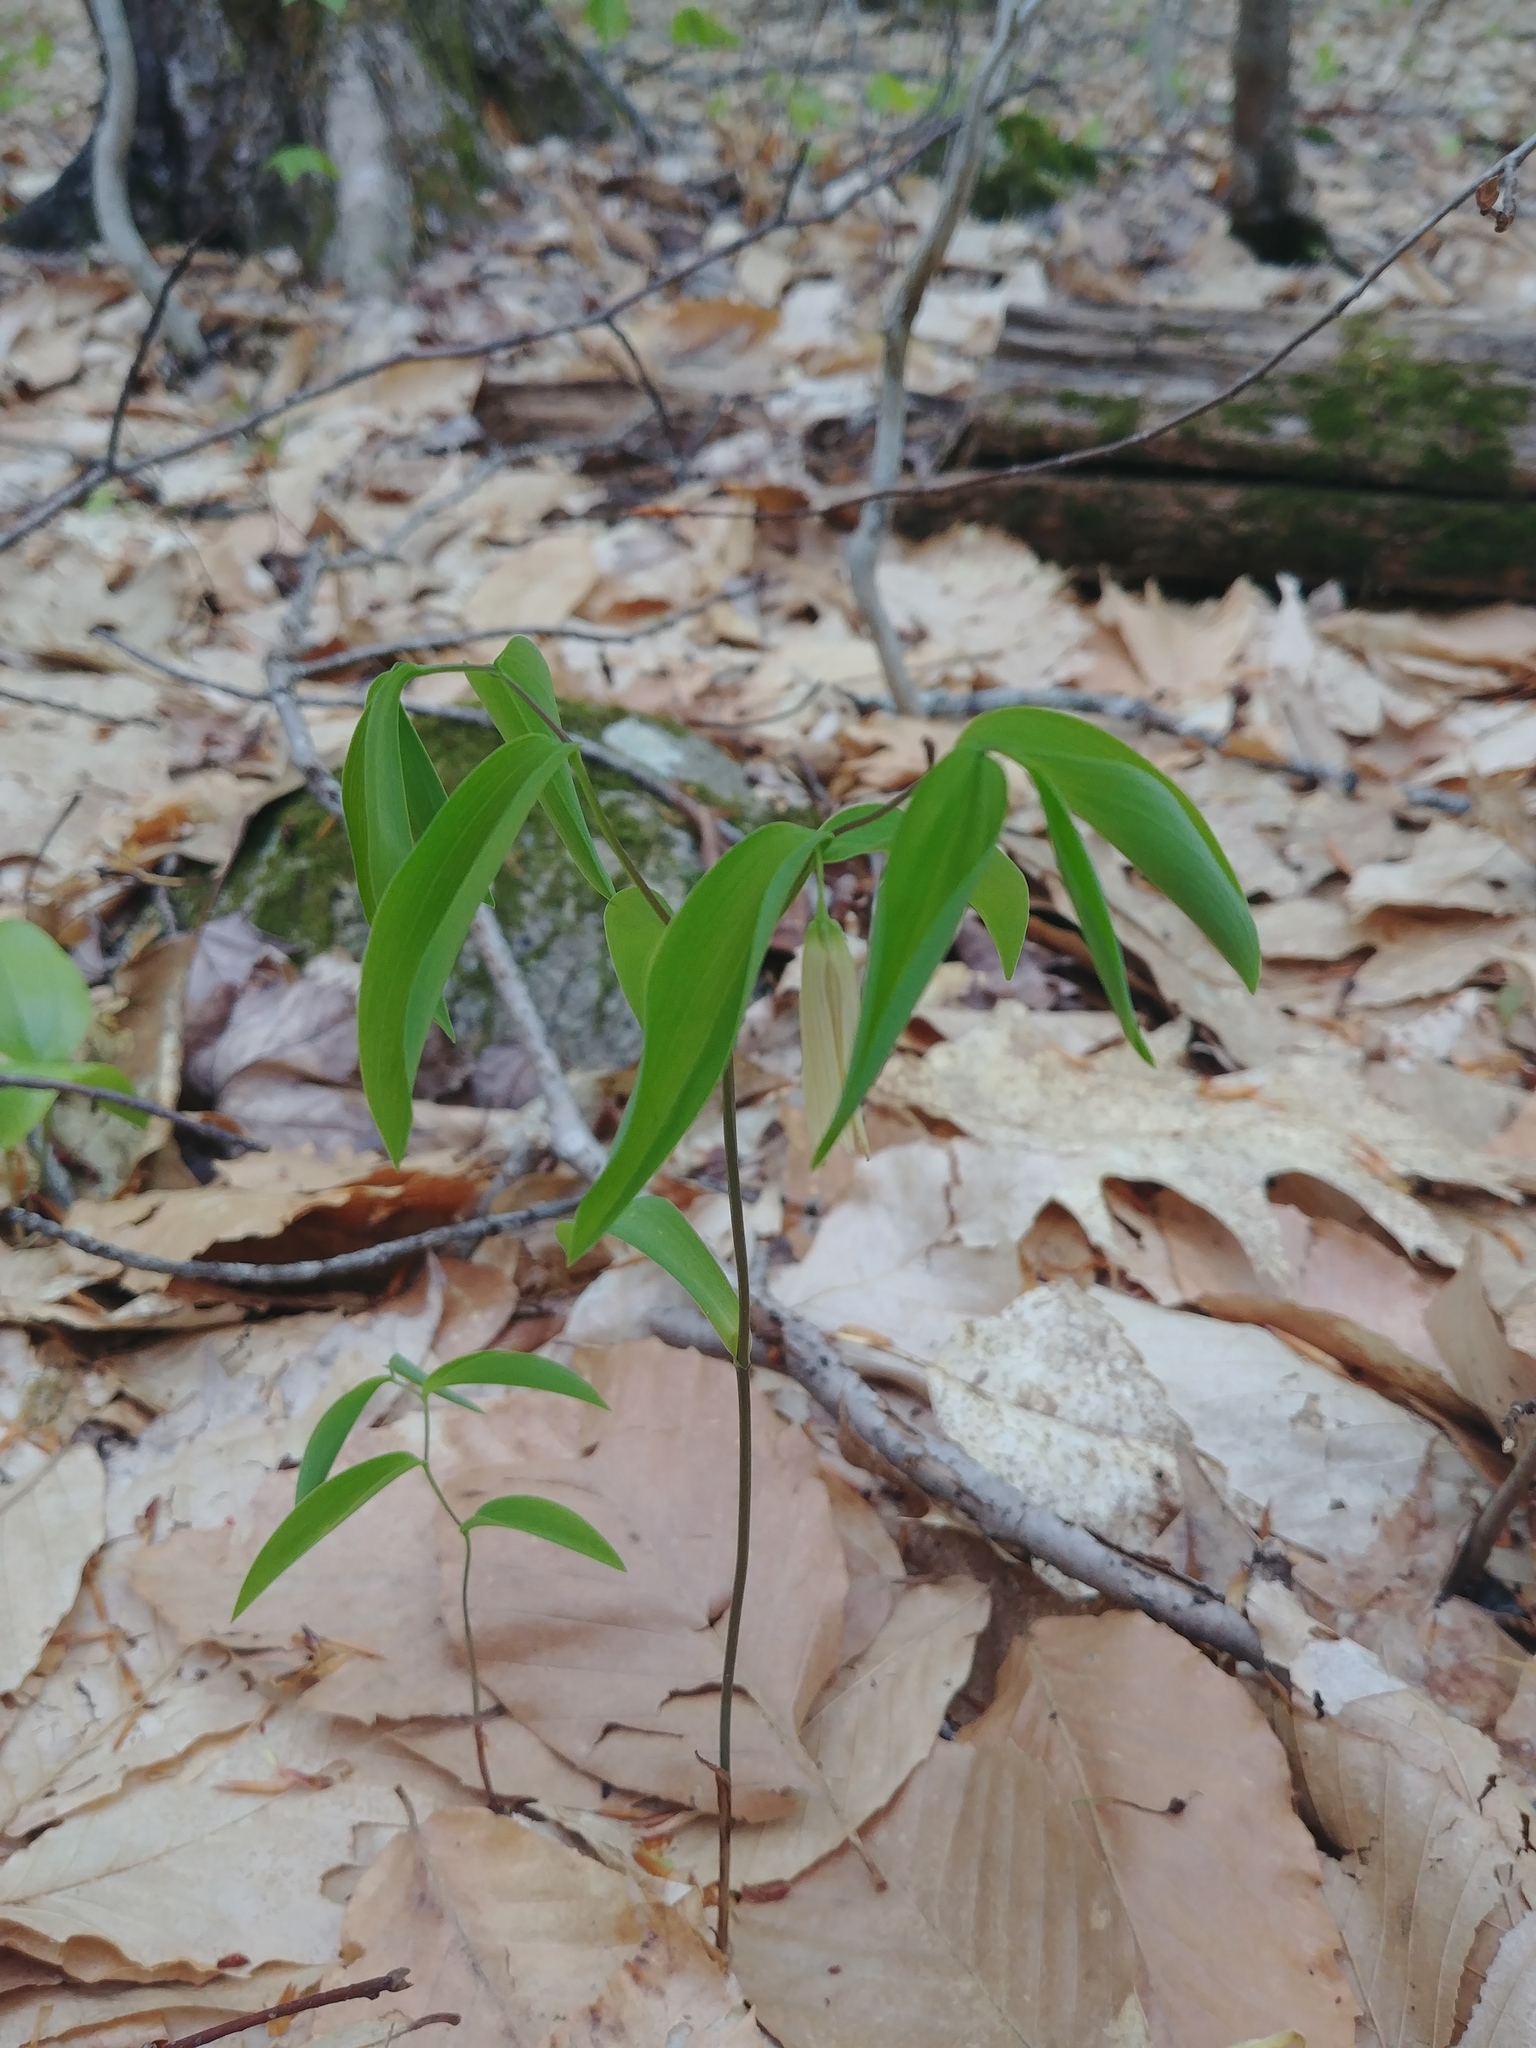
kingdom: Plantae
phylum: Tracheophyta
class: Liliopsida
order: Liliales
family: Colchicaceae
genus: Uvularia
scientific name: Uvularia sessilifolia
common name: Straw-lily
